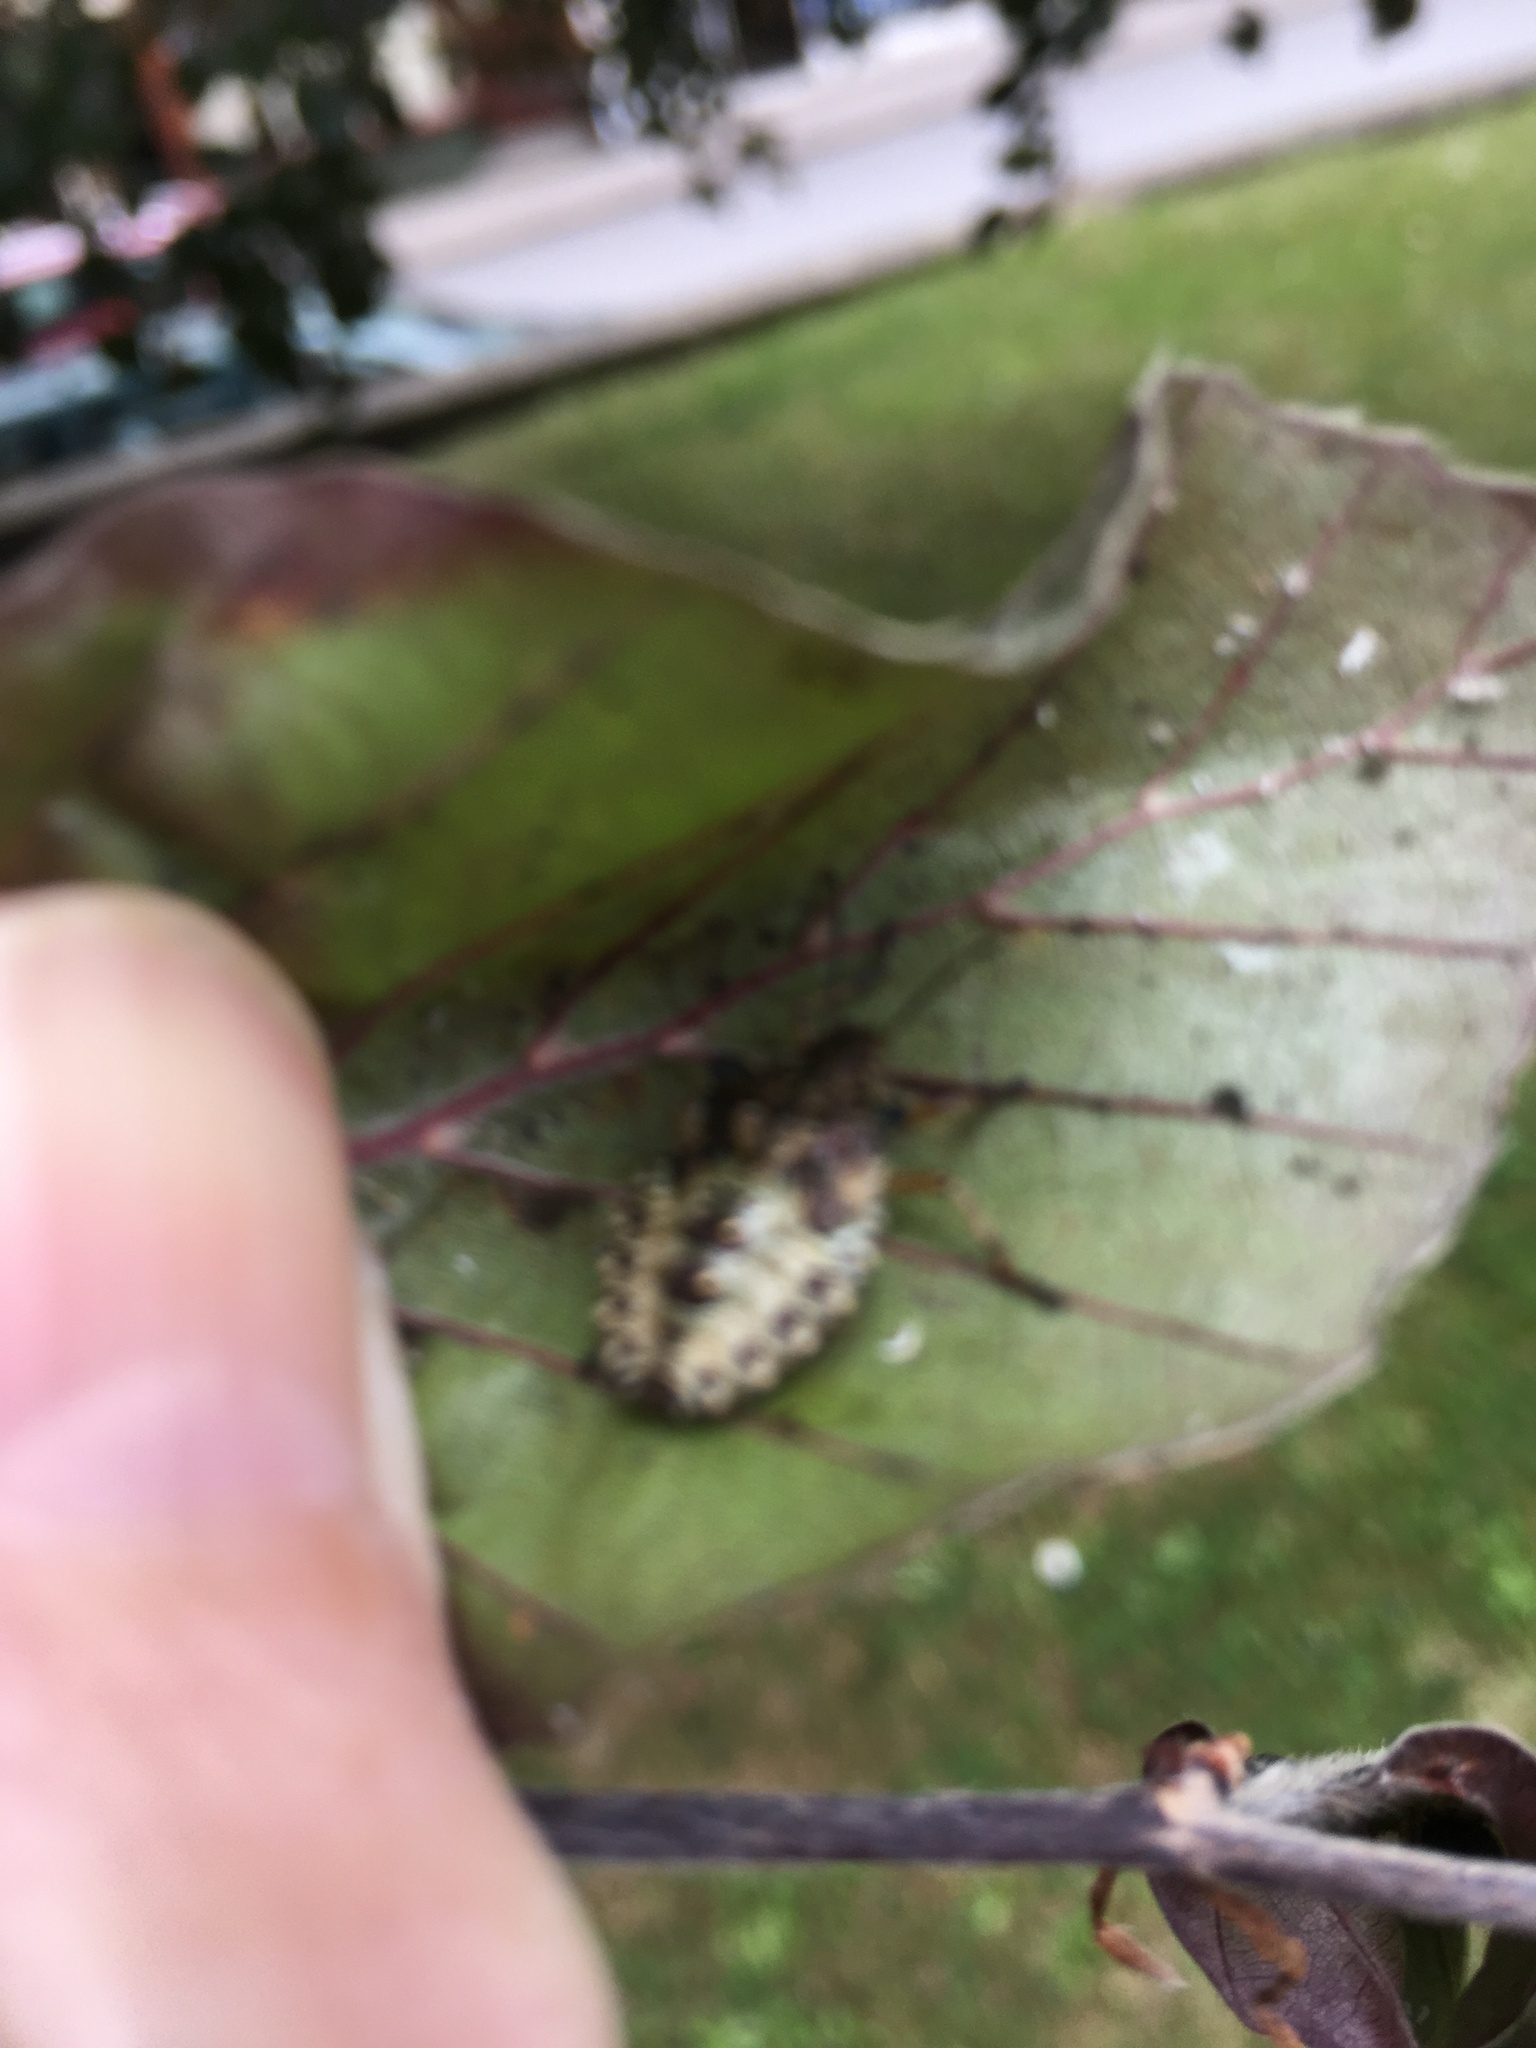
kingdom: Animalia
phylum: Arthropoda
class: Insecta
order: Hemiptera
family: Pentatomidae
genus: Pentatoma
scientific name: Pentatoma rufipes
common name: Forest bug
